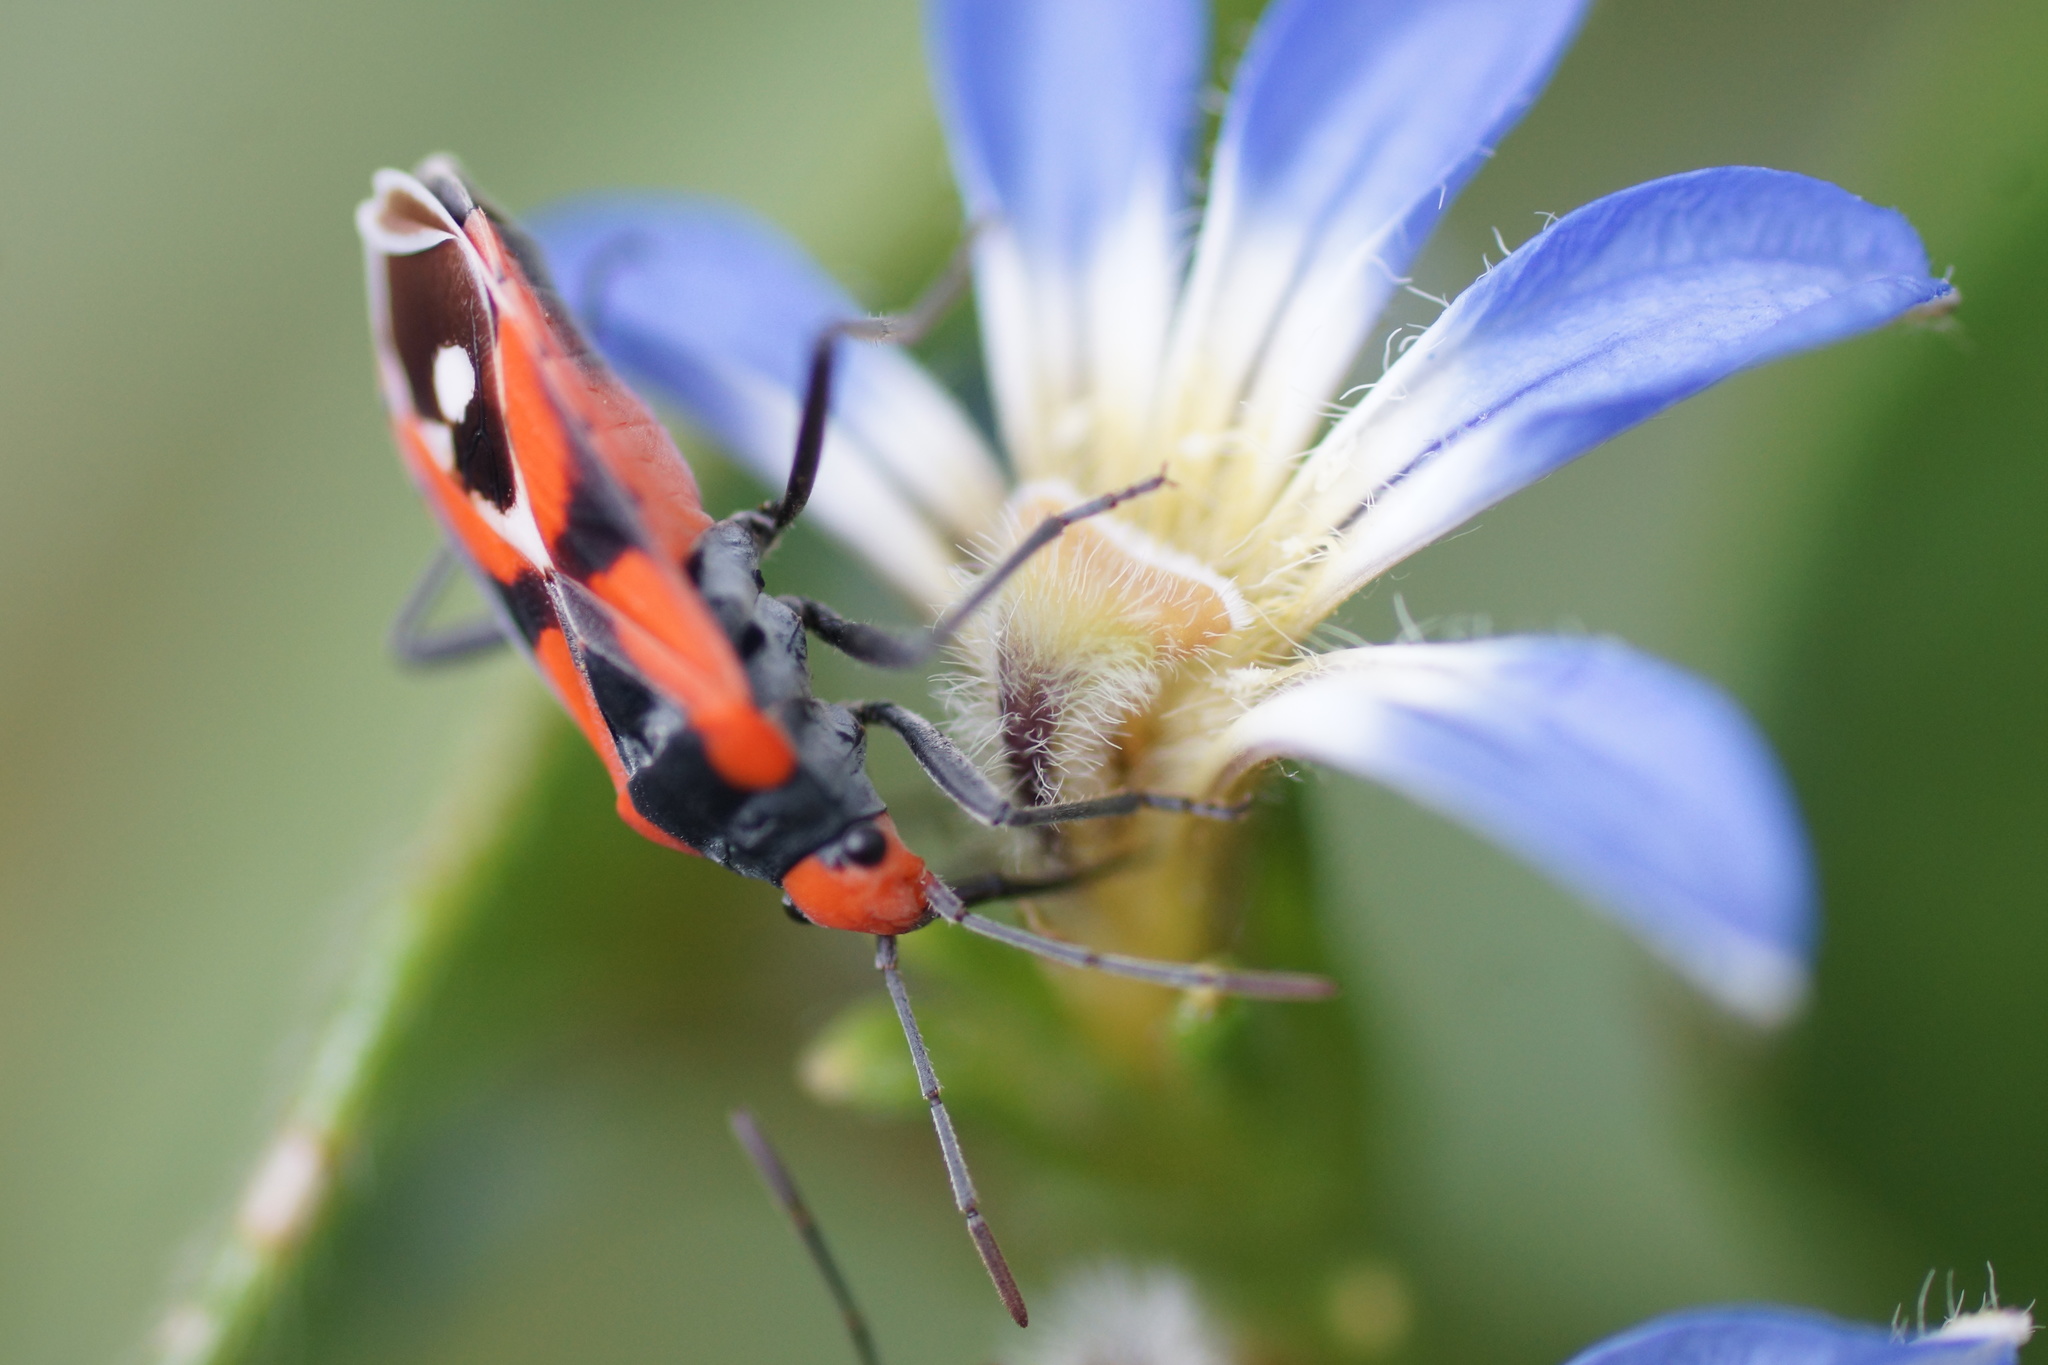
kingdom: Animalia
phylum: Arthropoda
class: Insecta
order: Hemiptera
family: Lygaeidae
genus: Melanerythrus
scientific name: Melanerythrus mactans
